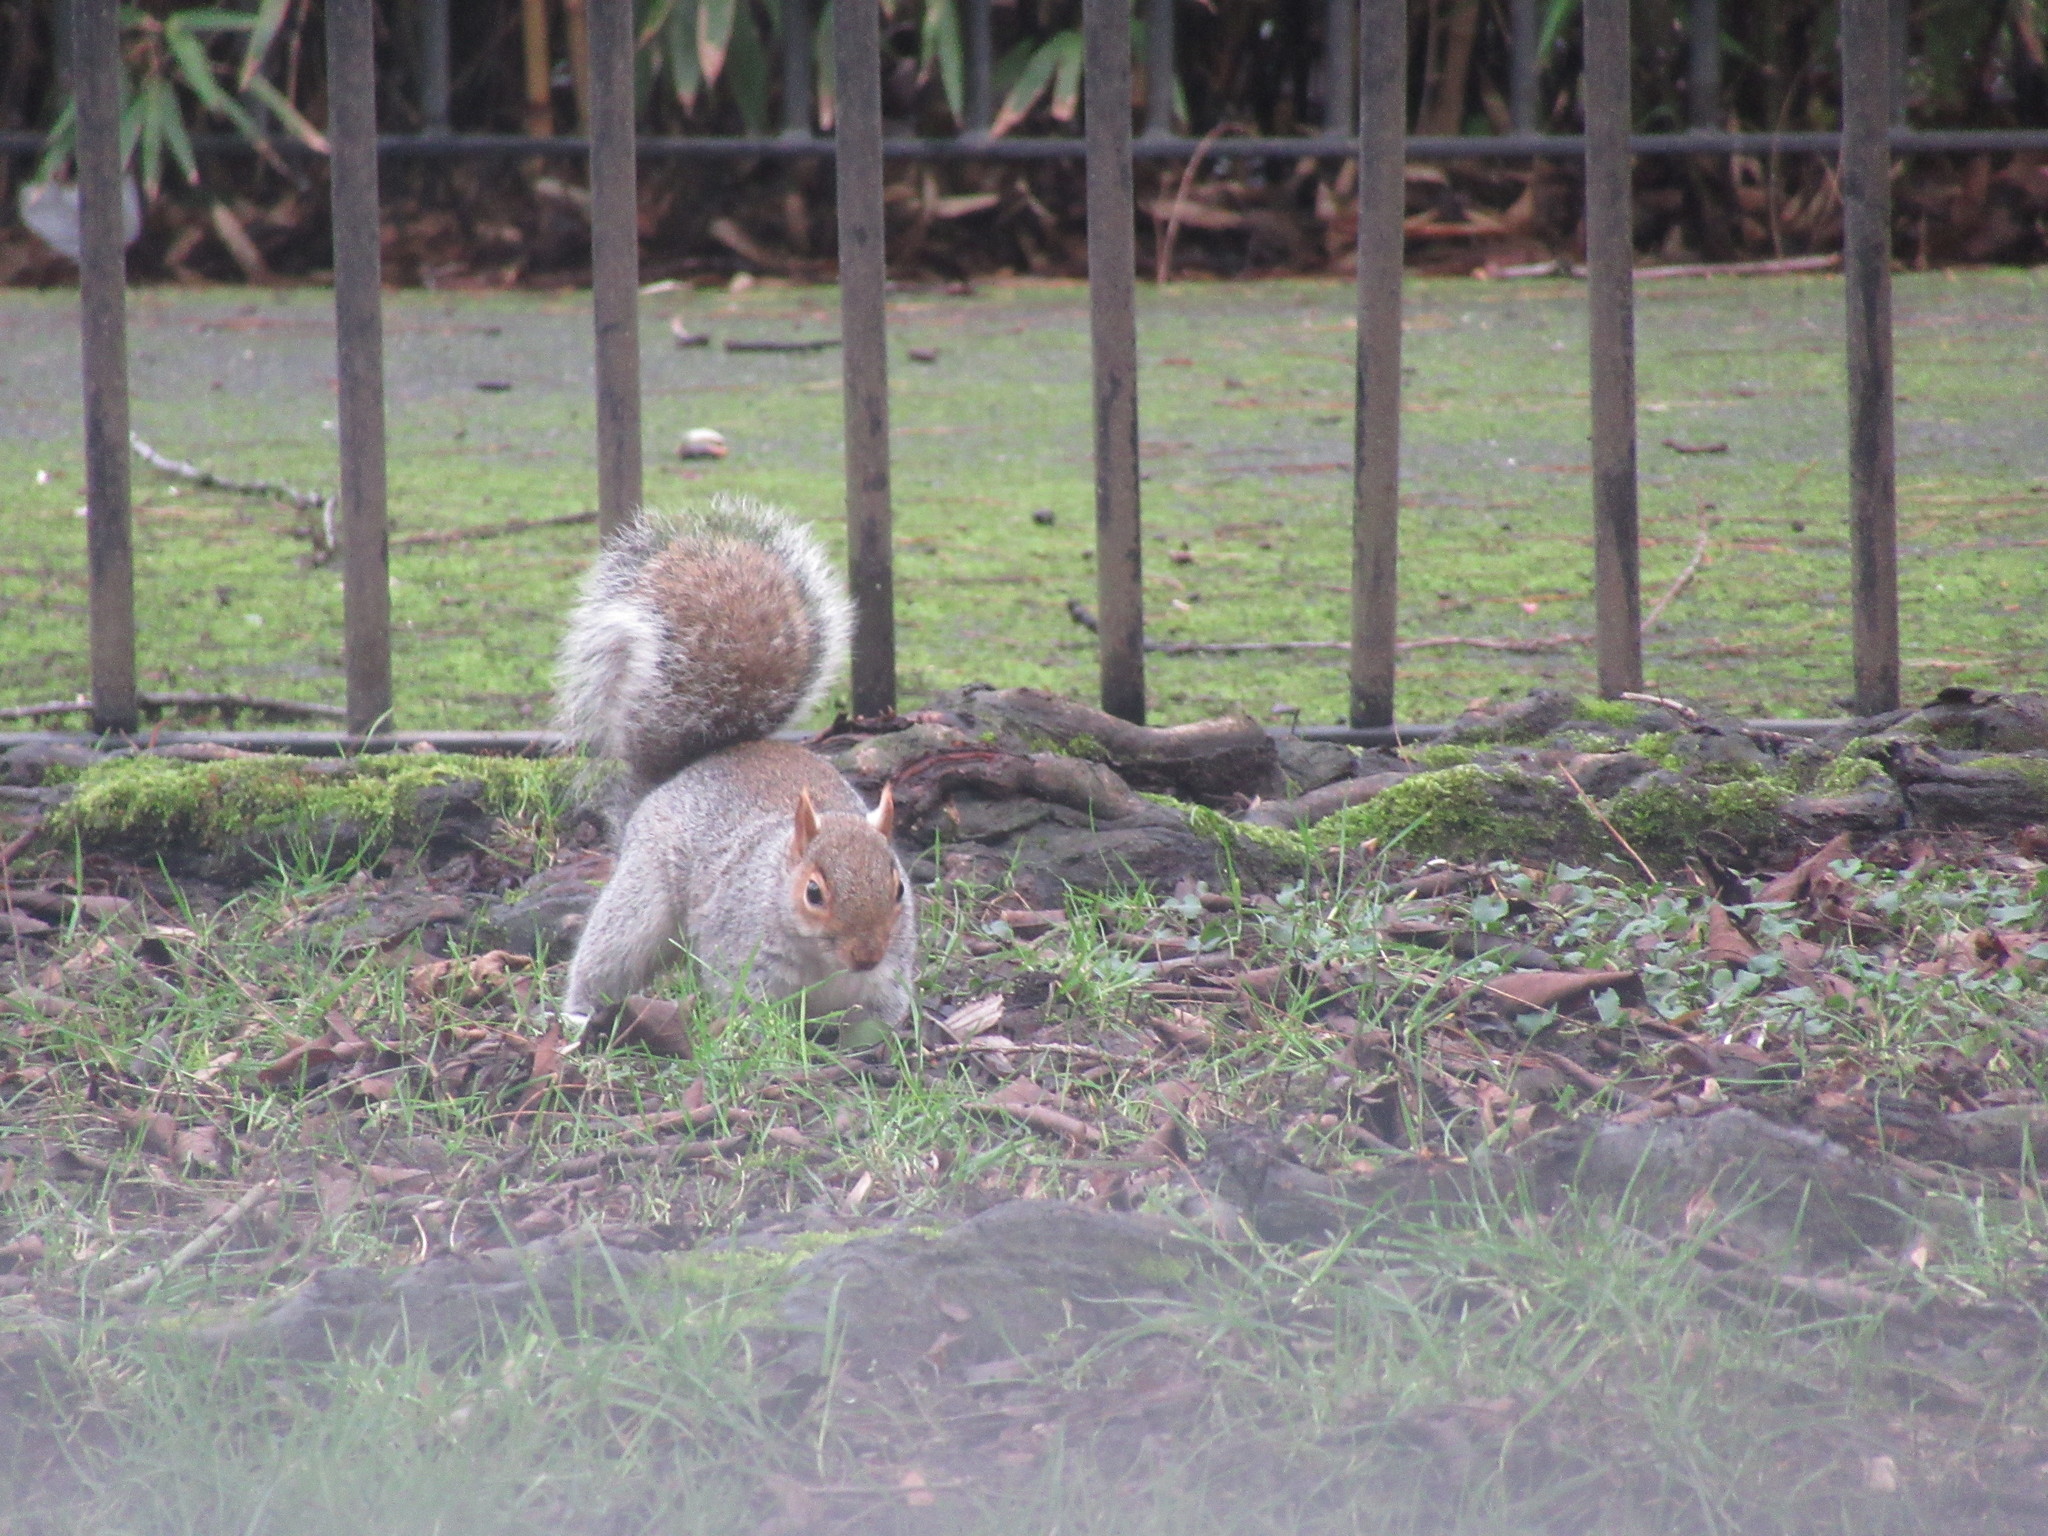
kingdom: Animalia
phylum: Chordata
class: Mammalia
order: Rodentia
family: Sciuridae
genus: Sciurus
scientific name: Sciurus carolinensis
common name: Eastern gray squirrel
